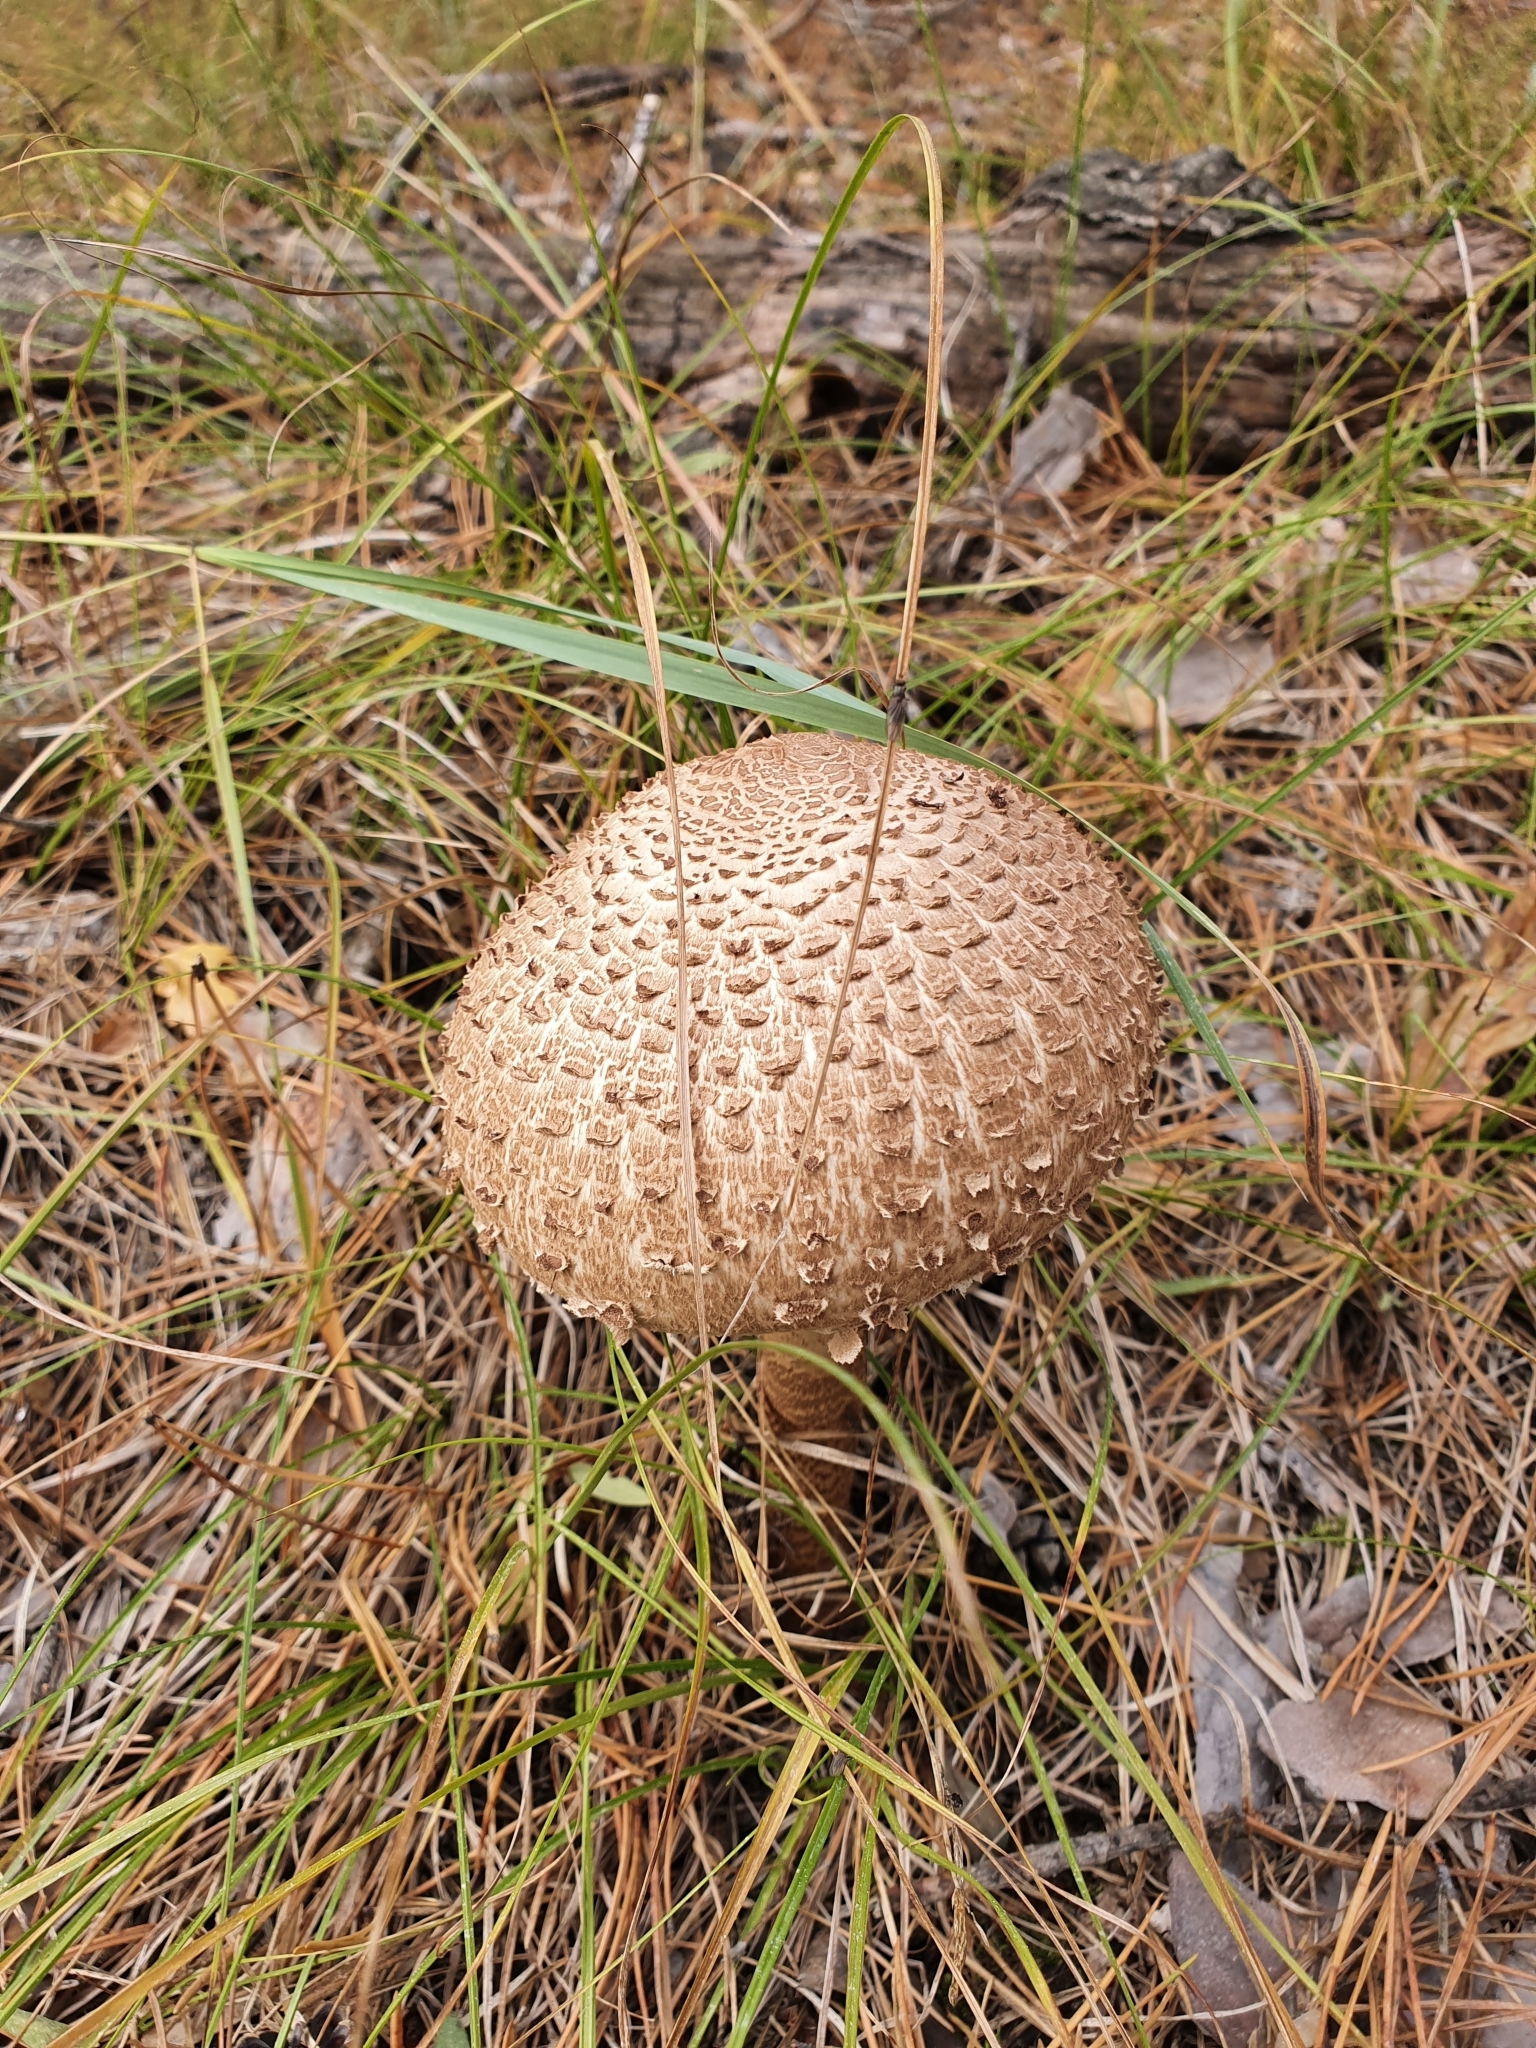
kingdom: Fungi
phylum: Basidiomycota
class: Agaricomycetes
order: Agaricales
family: Agaricaceae
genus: Macrolepiota
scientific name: Macrolepiota procera
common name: Parasol
